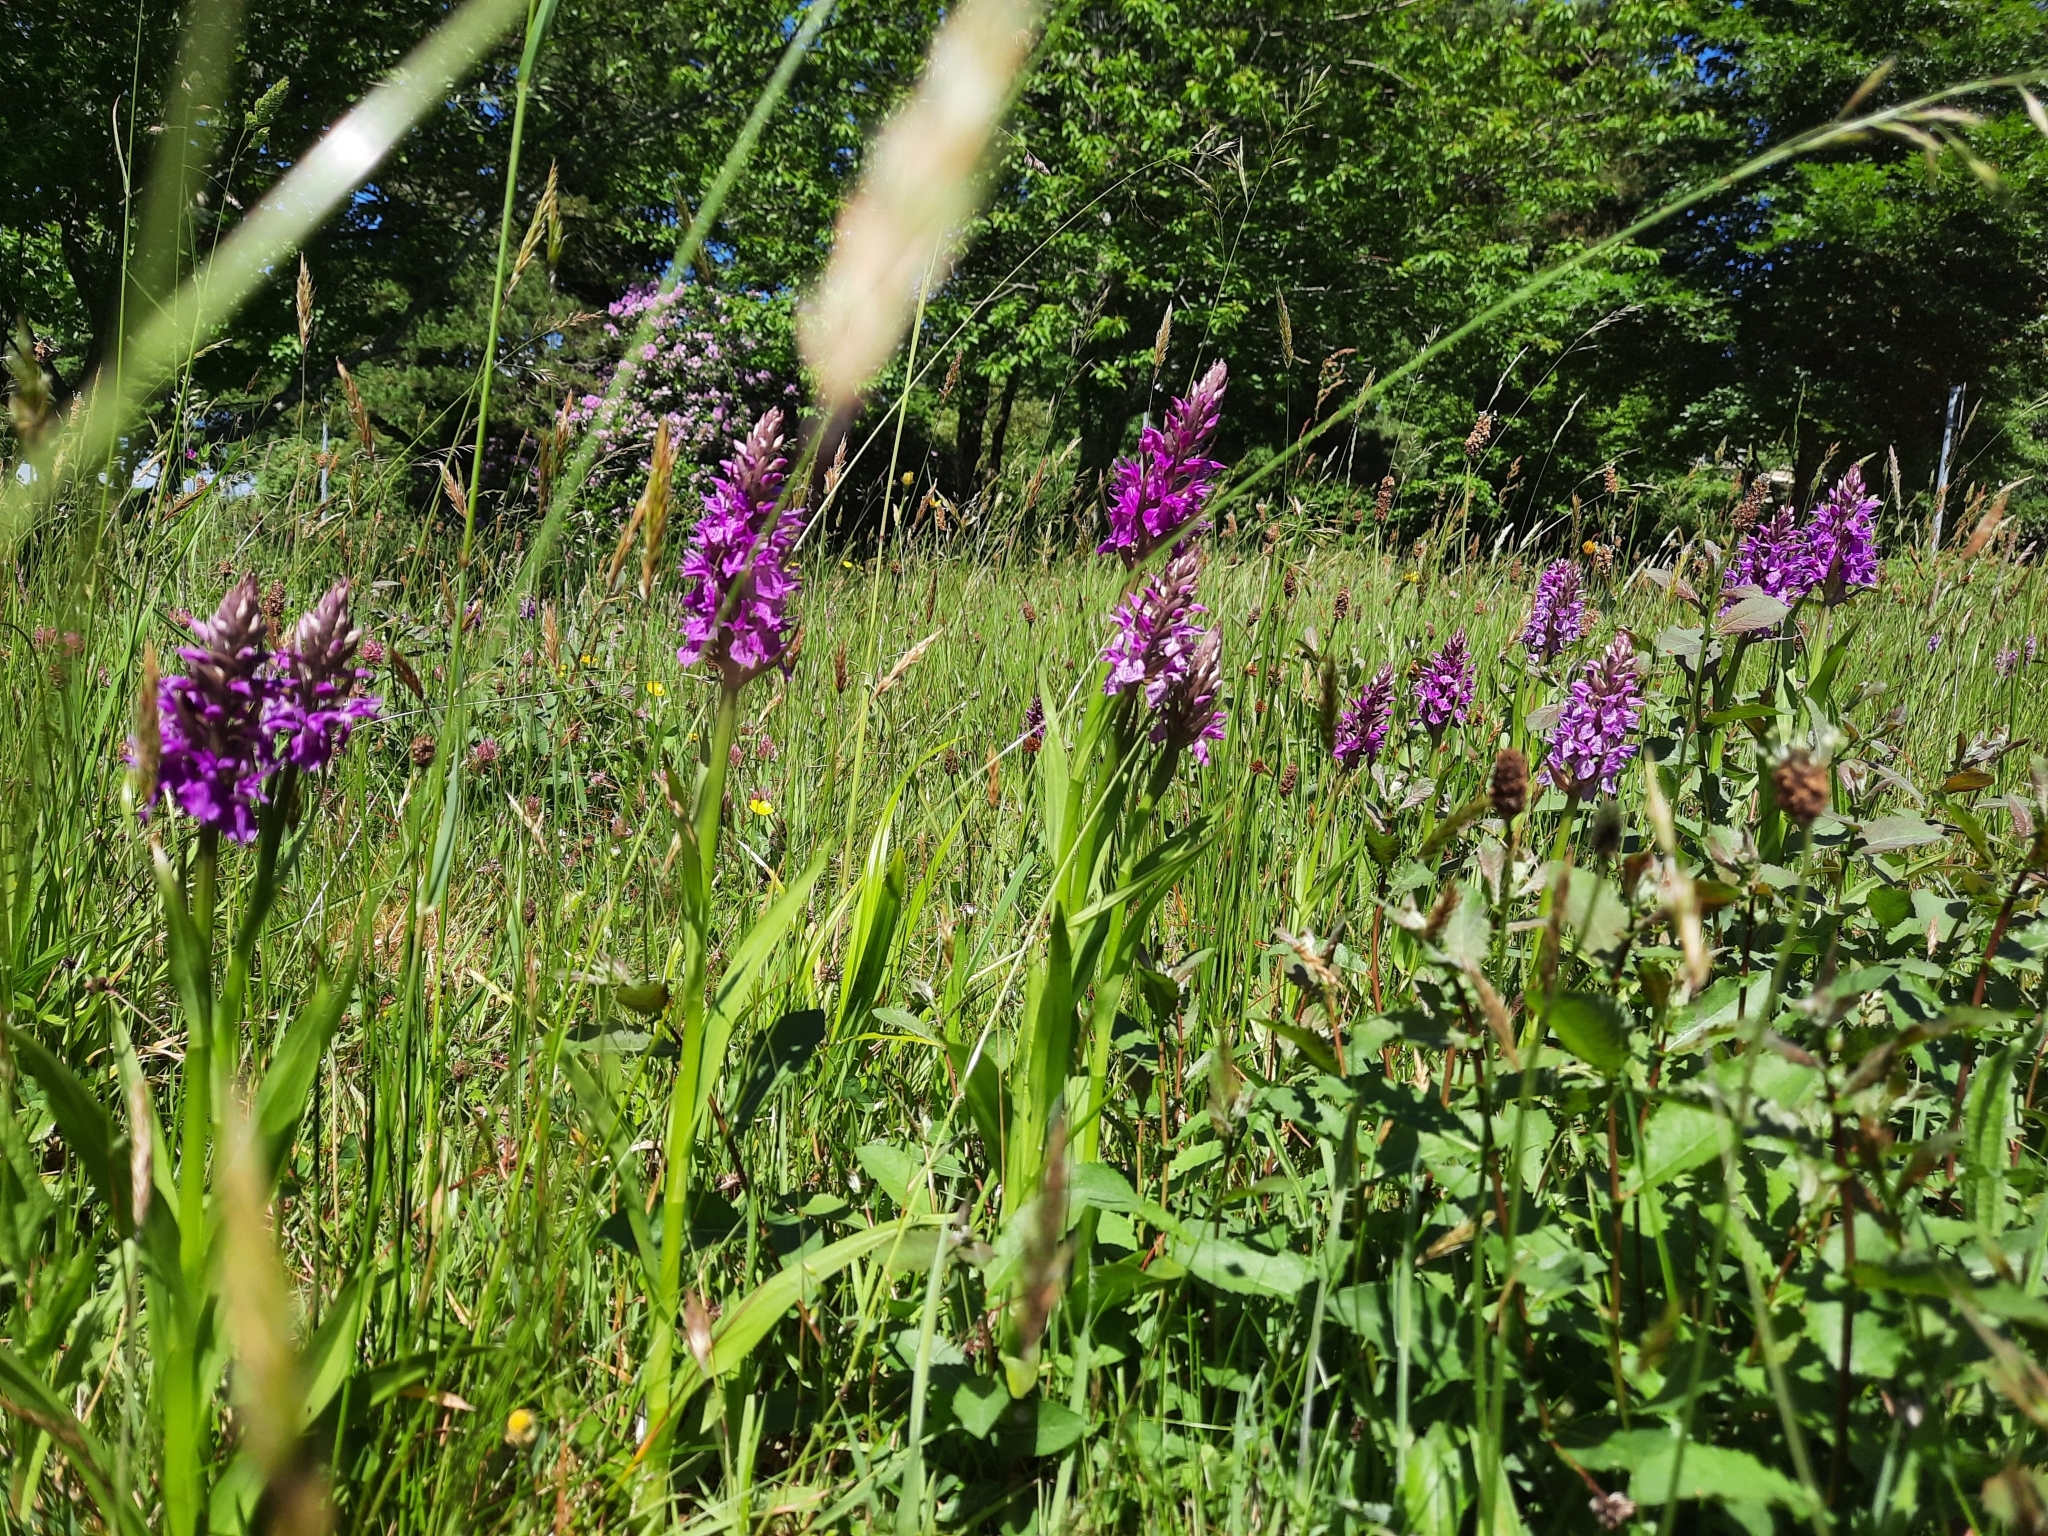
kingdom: Plantae
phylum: Tracheophyta
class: Liliopsida
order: Asparagales
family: Orchidaceae
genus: Dactylorhiza
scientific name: Dactylorhiza majalis
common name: Marsh orchid
